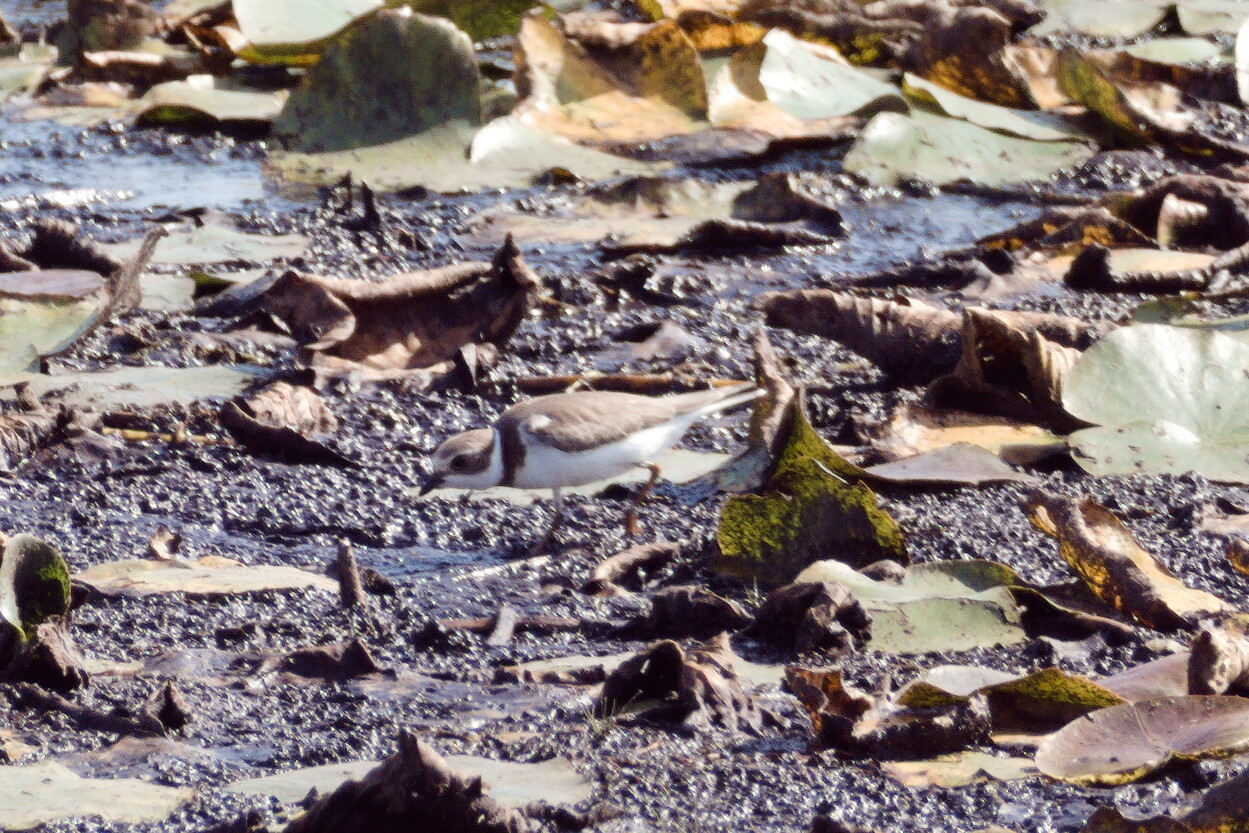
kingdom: Animalia
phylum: Chordata
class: Aves
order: Charadriiformes
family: Charadriidae
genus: Charadrius
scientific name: Charadrius semipalmatus
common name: Semipalmated plover
